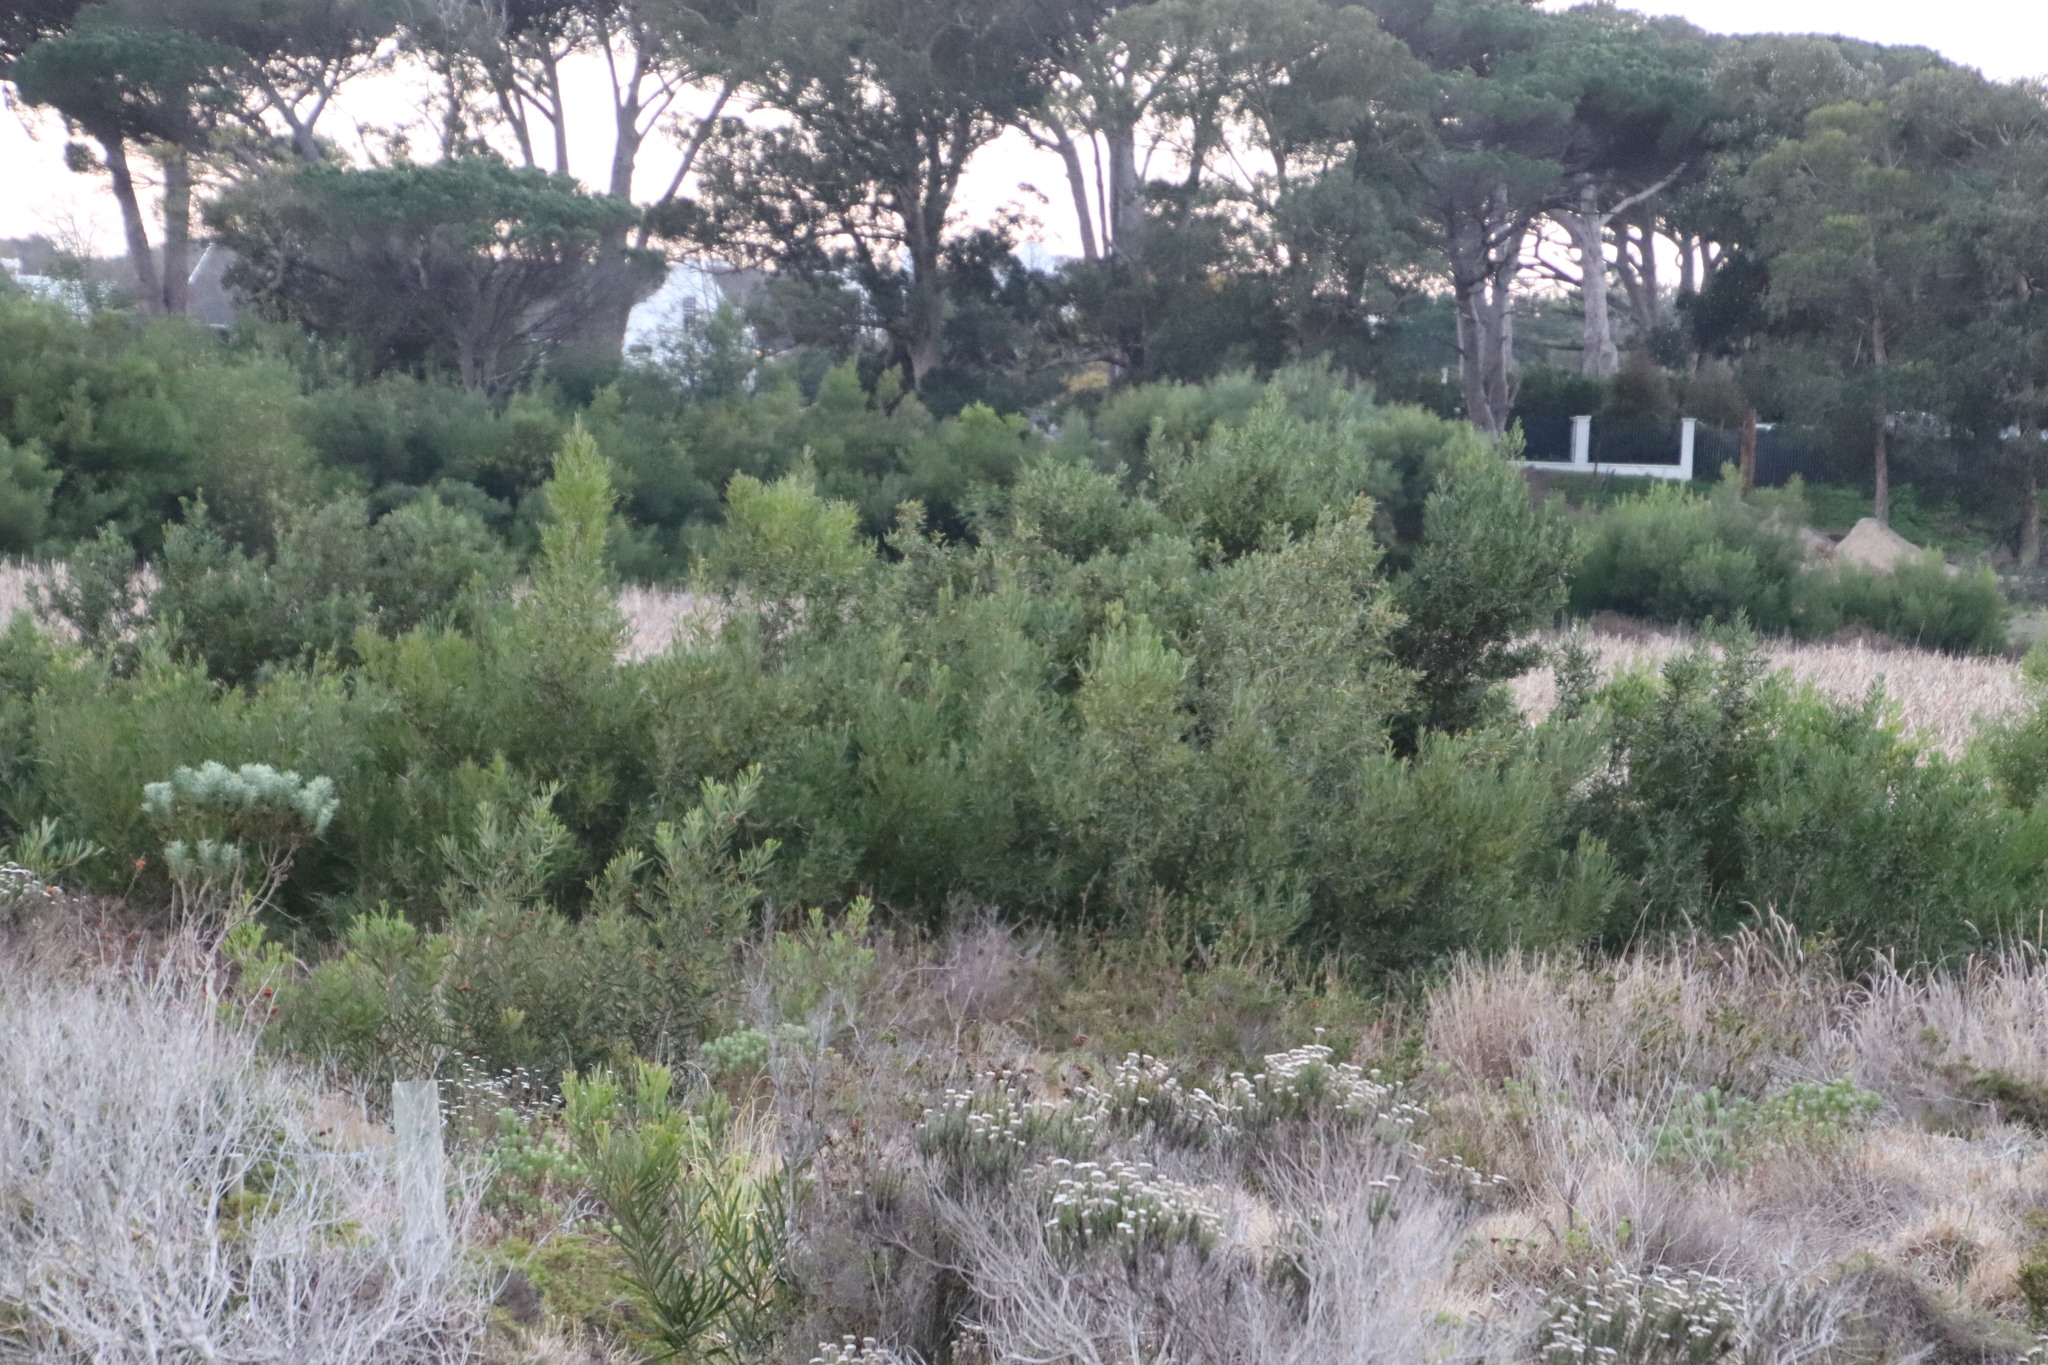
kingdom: Plantae
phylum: Tracheophyta
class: Magnoliopsida
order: Fabales
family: Fabaceae
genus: Acacia
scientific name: Acacia longifolia
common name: Sydney golden wattle
